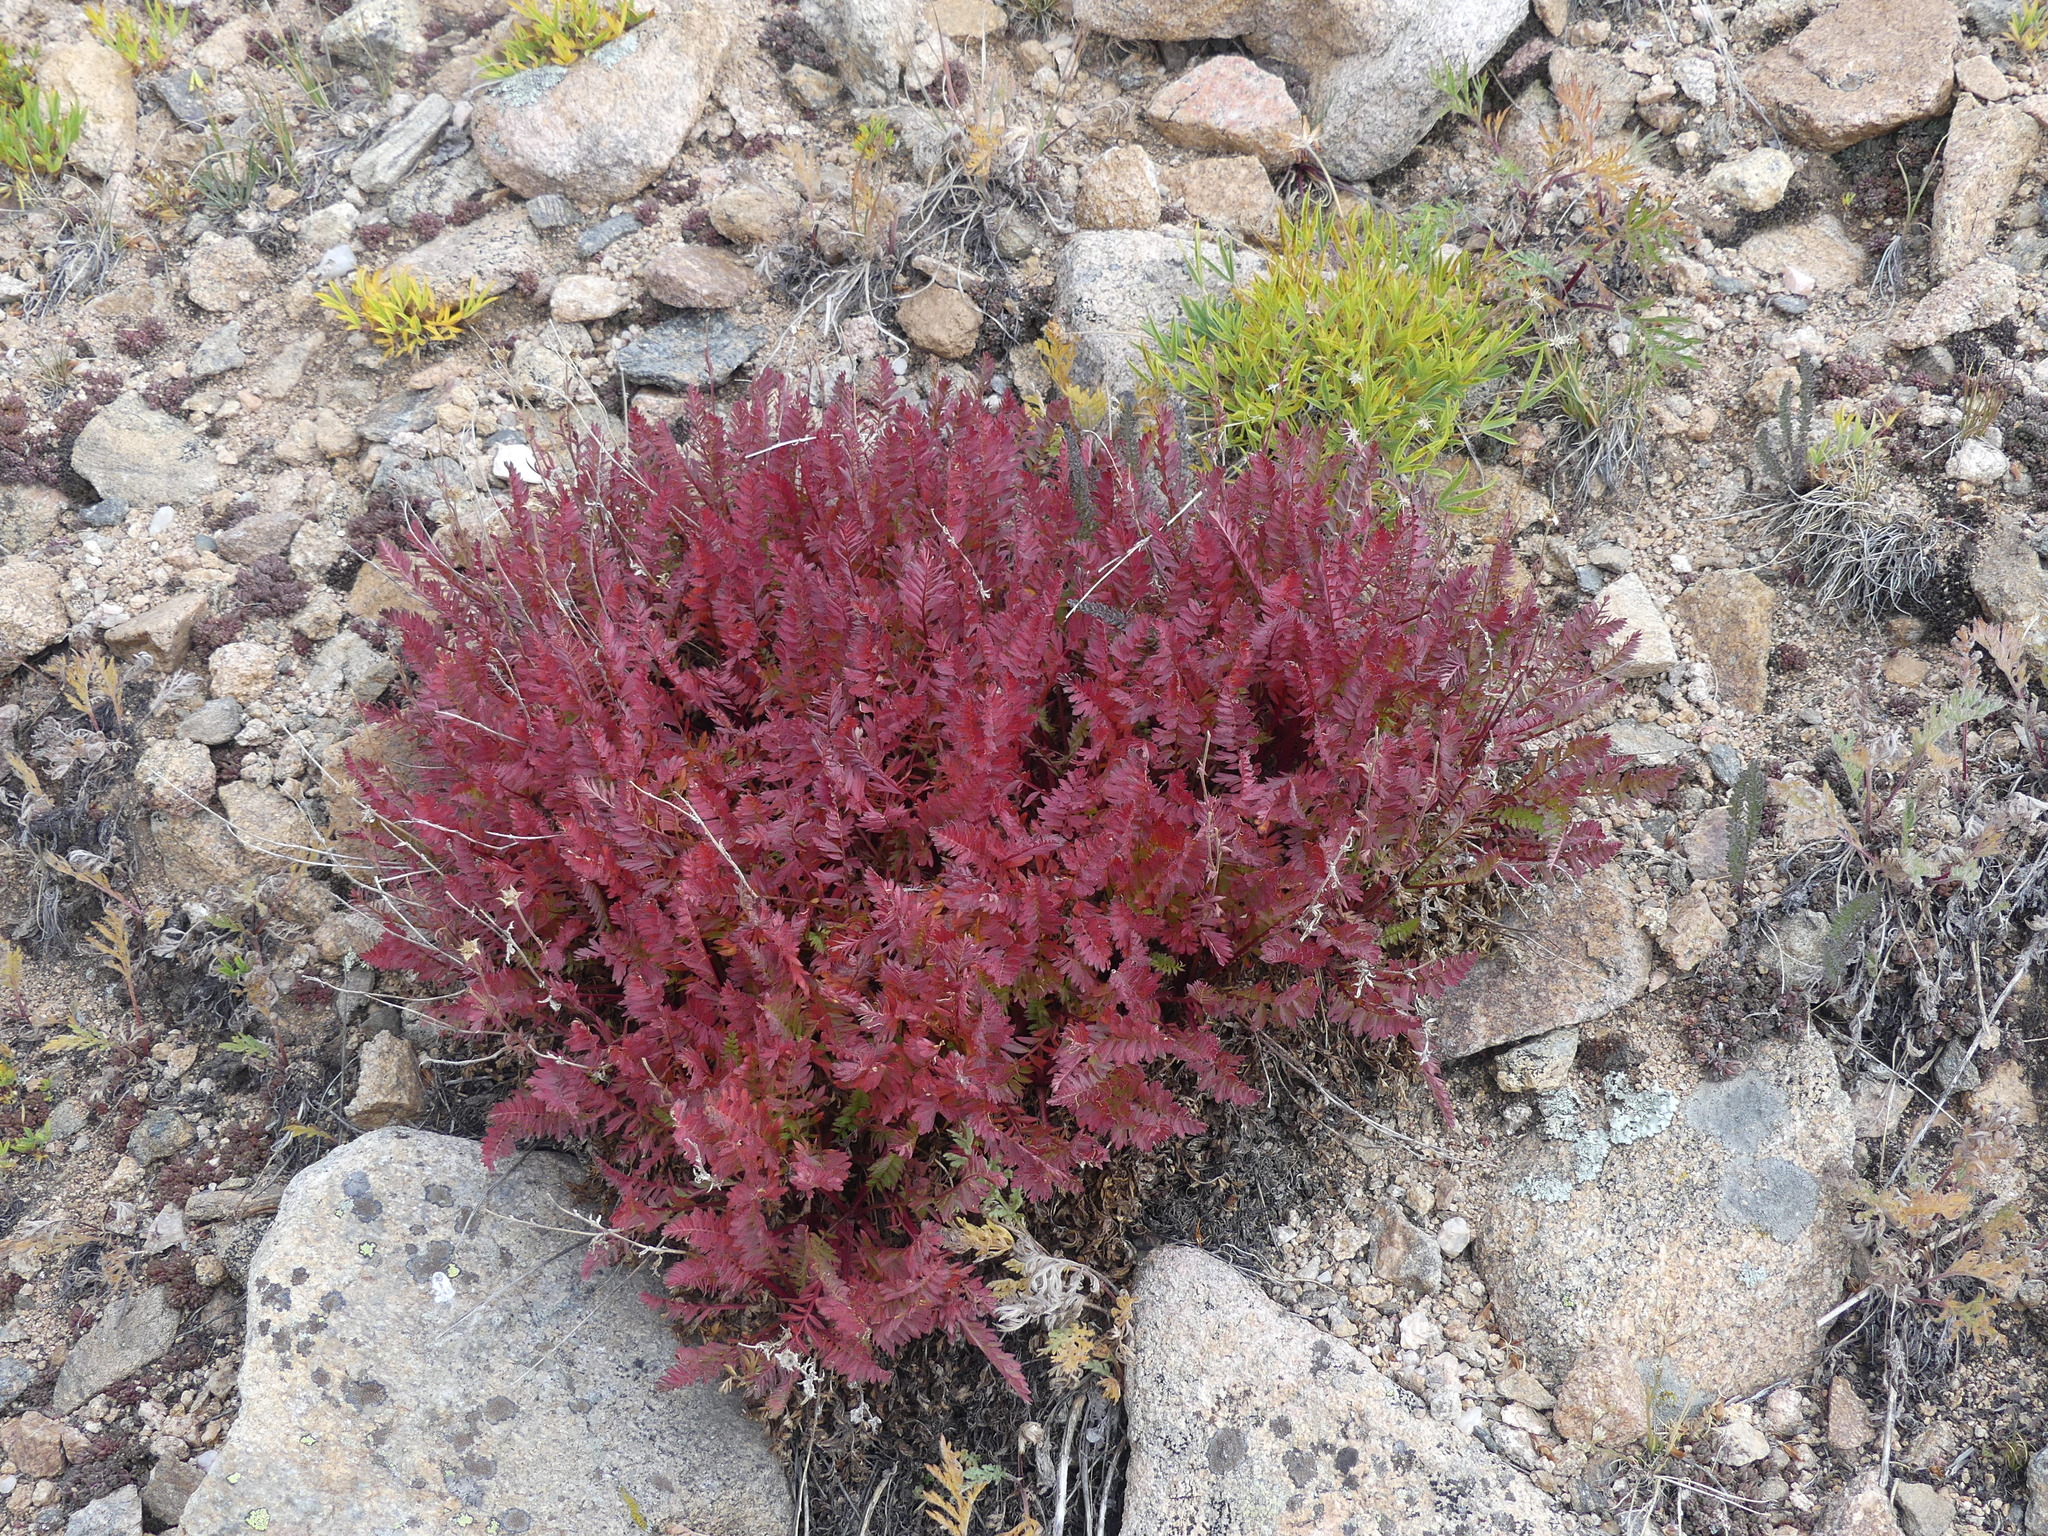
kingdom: Plantae
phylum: Tracheophyta
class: Magnoliopsida
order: Rosales
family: Rosaceae
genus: Geum
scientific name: Geum rossii
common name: Alpine avens
